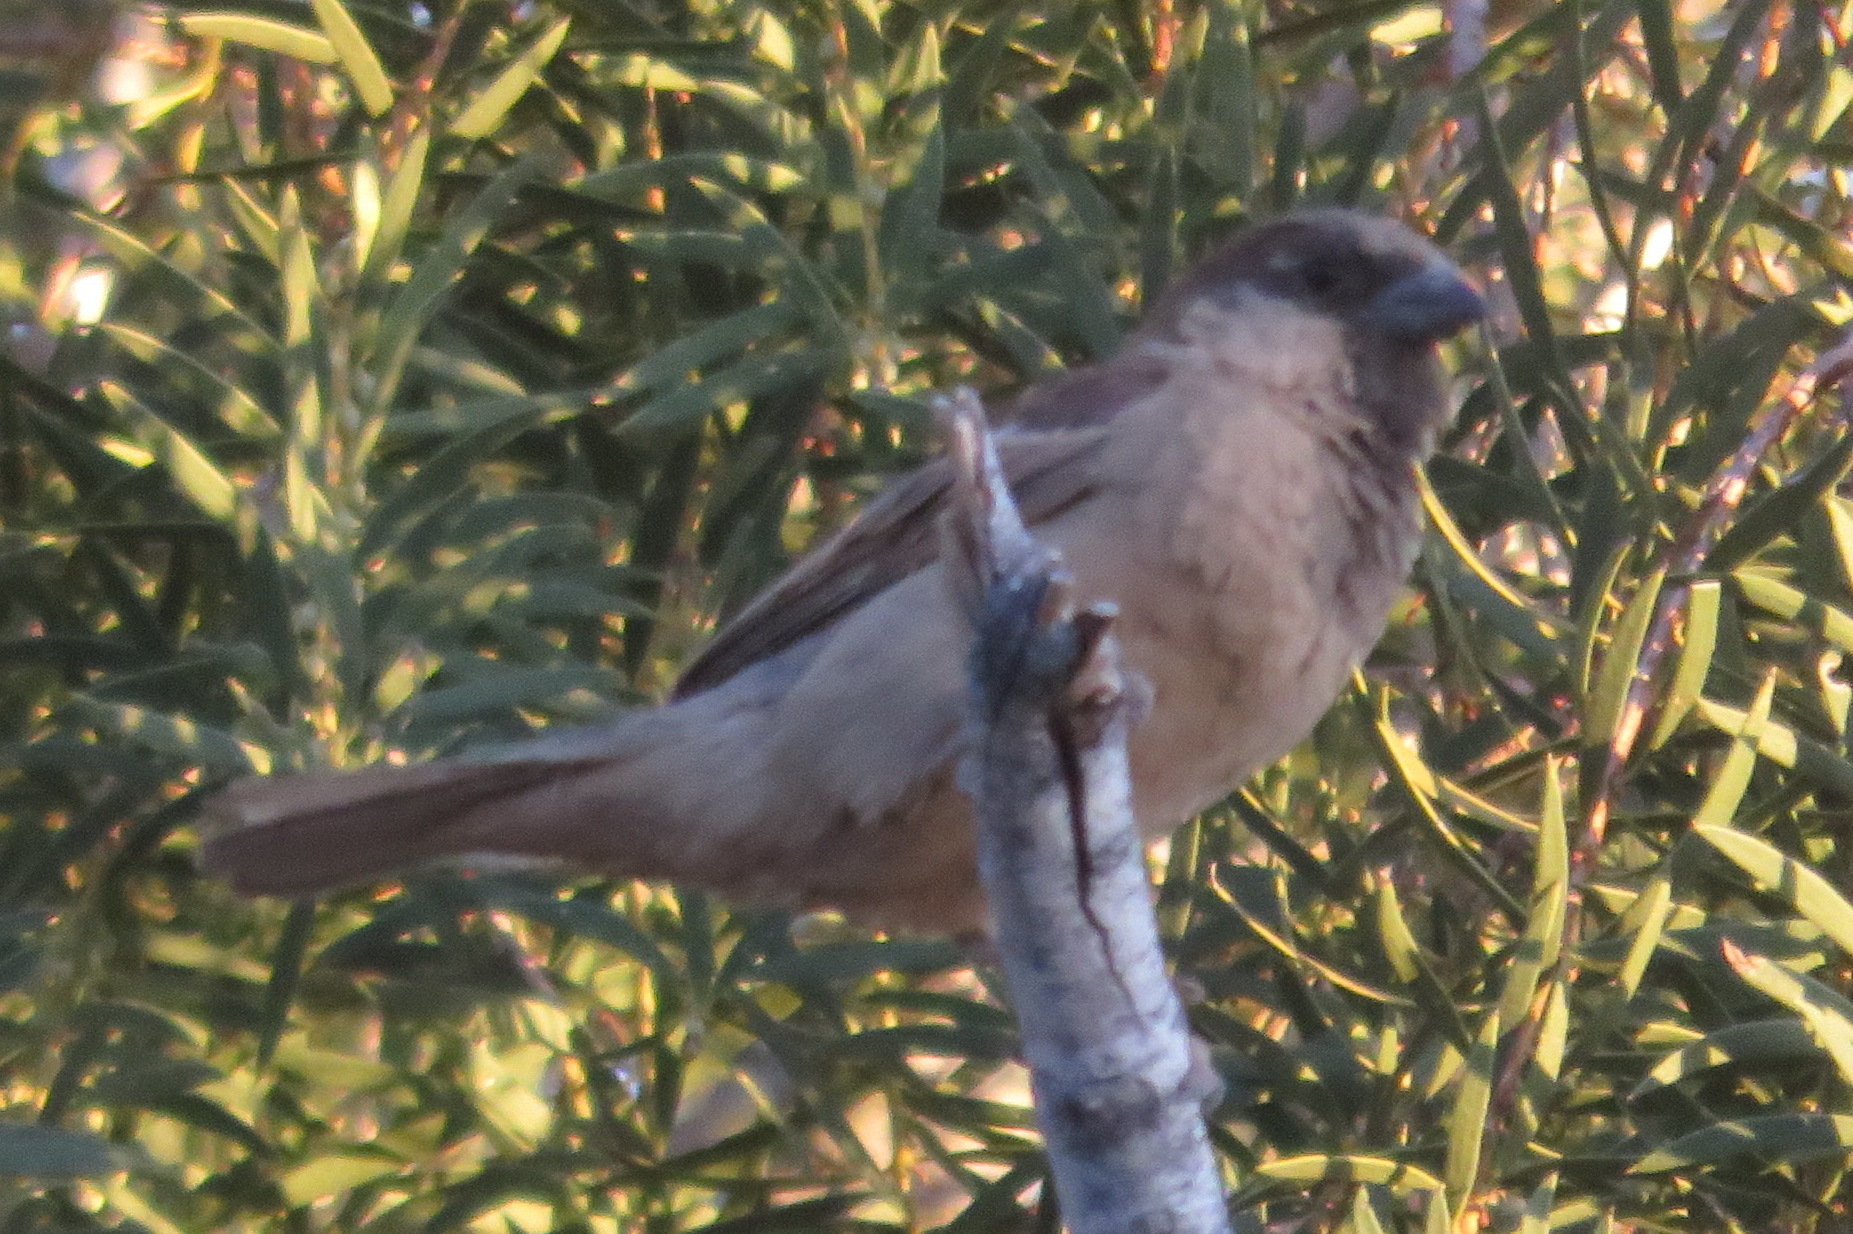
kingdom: Animalia
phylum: Chordata
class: Aves
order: Passeriformes
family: Passeridae
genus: Passer
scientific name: Passer domesticus
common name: House sparrow
